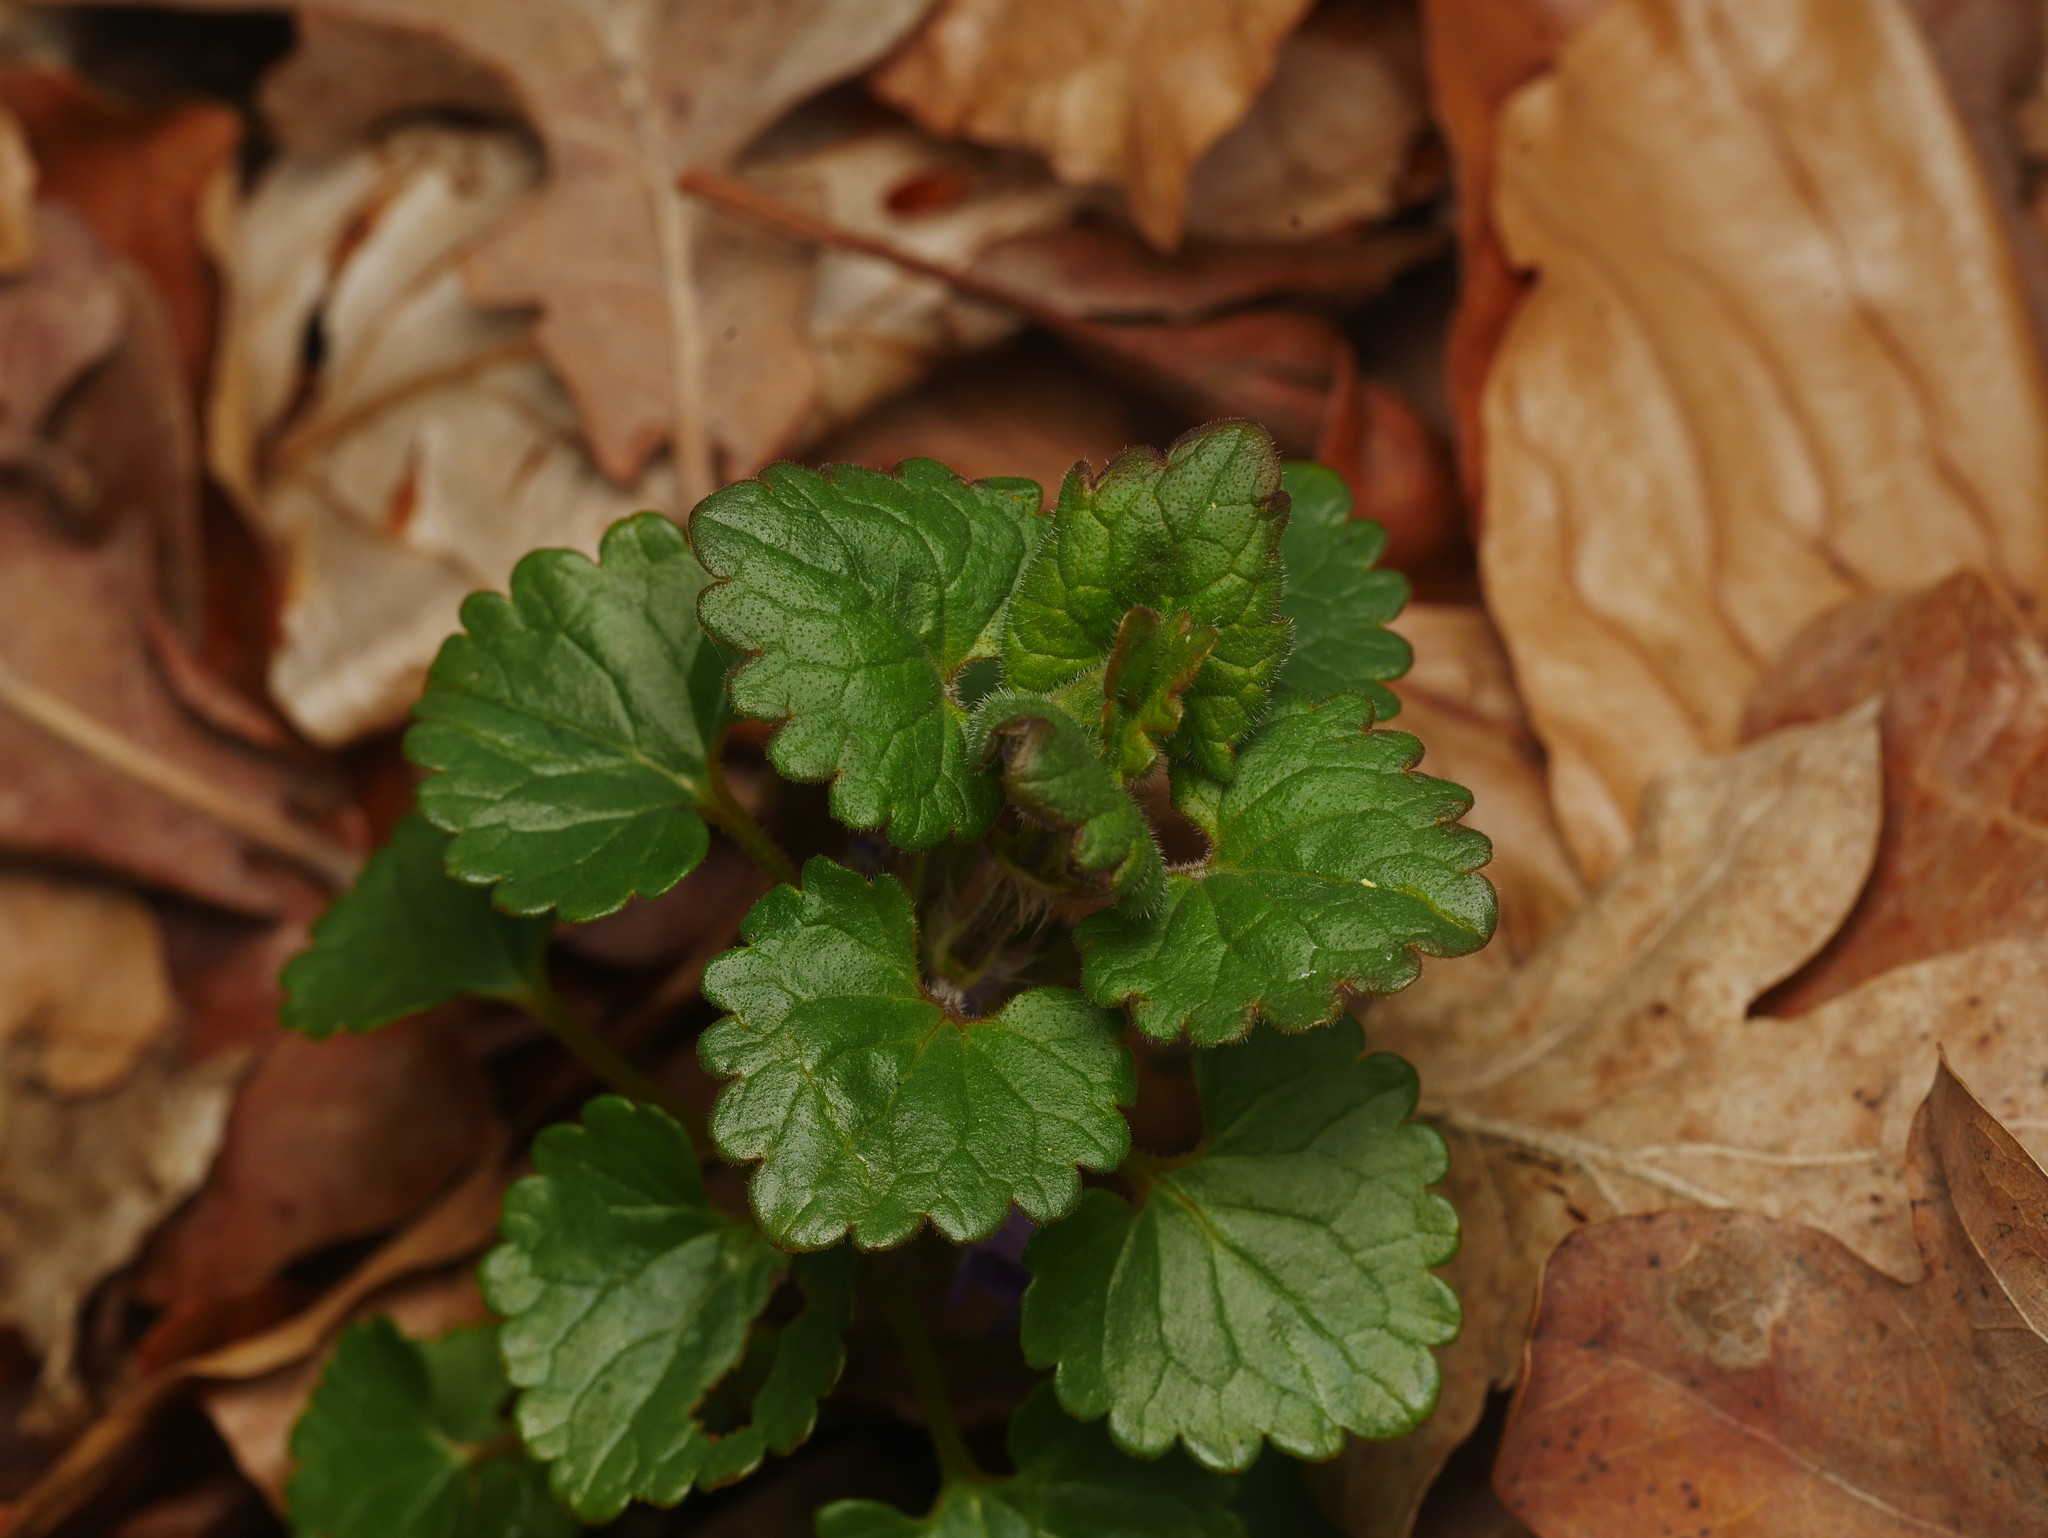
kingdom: Plantae
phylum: Tracheophyta
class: Magnoliopsida
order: Lamiales
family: Lamiaceae
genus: Glechoma
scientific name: Glechoma hederacea
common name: Ground ivy
